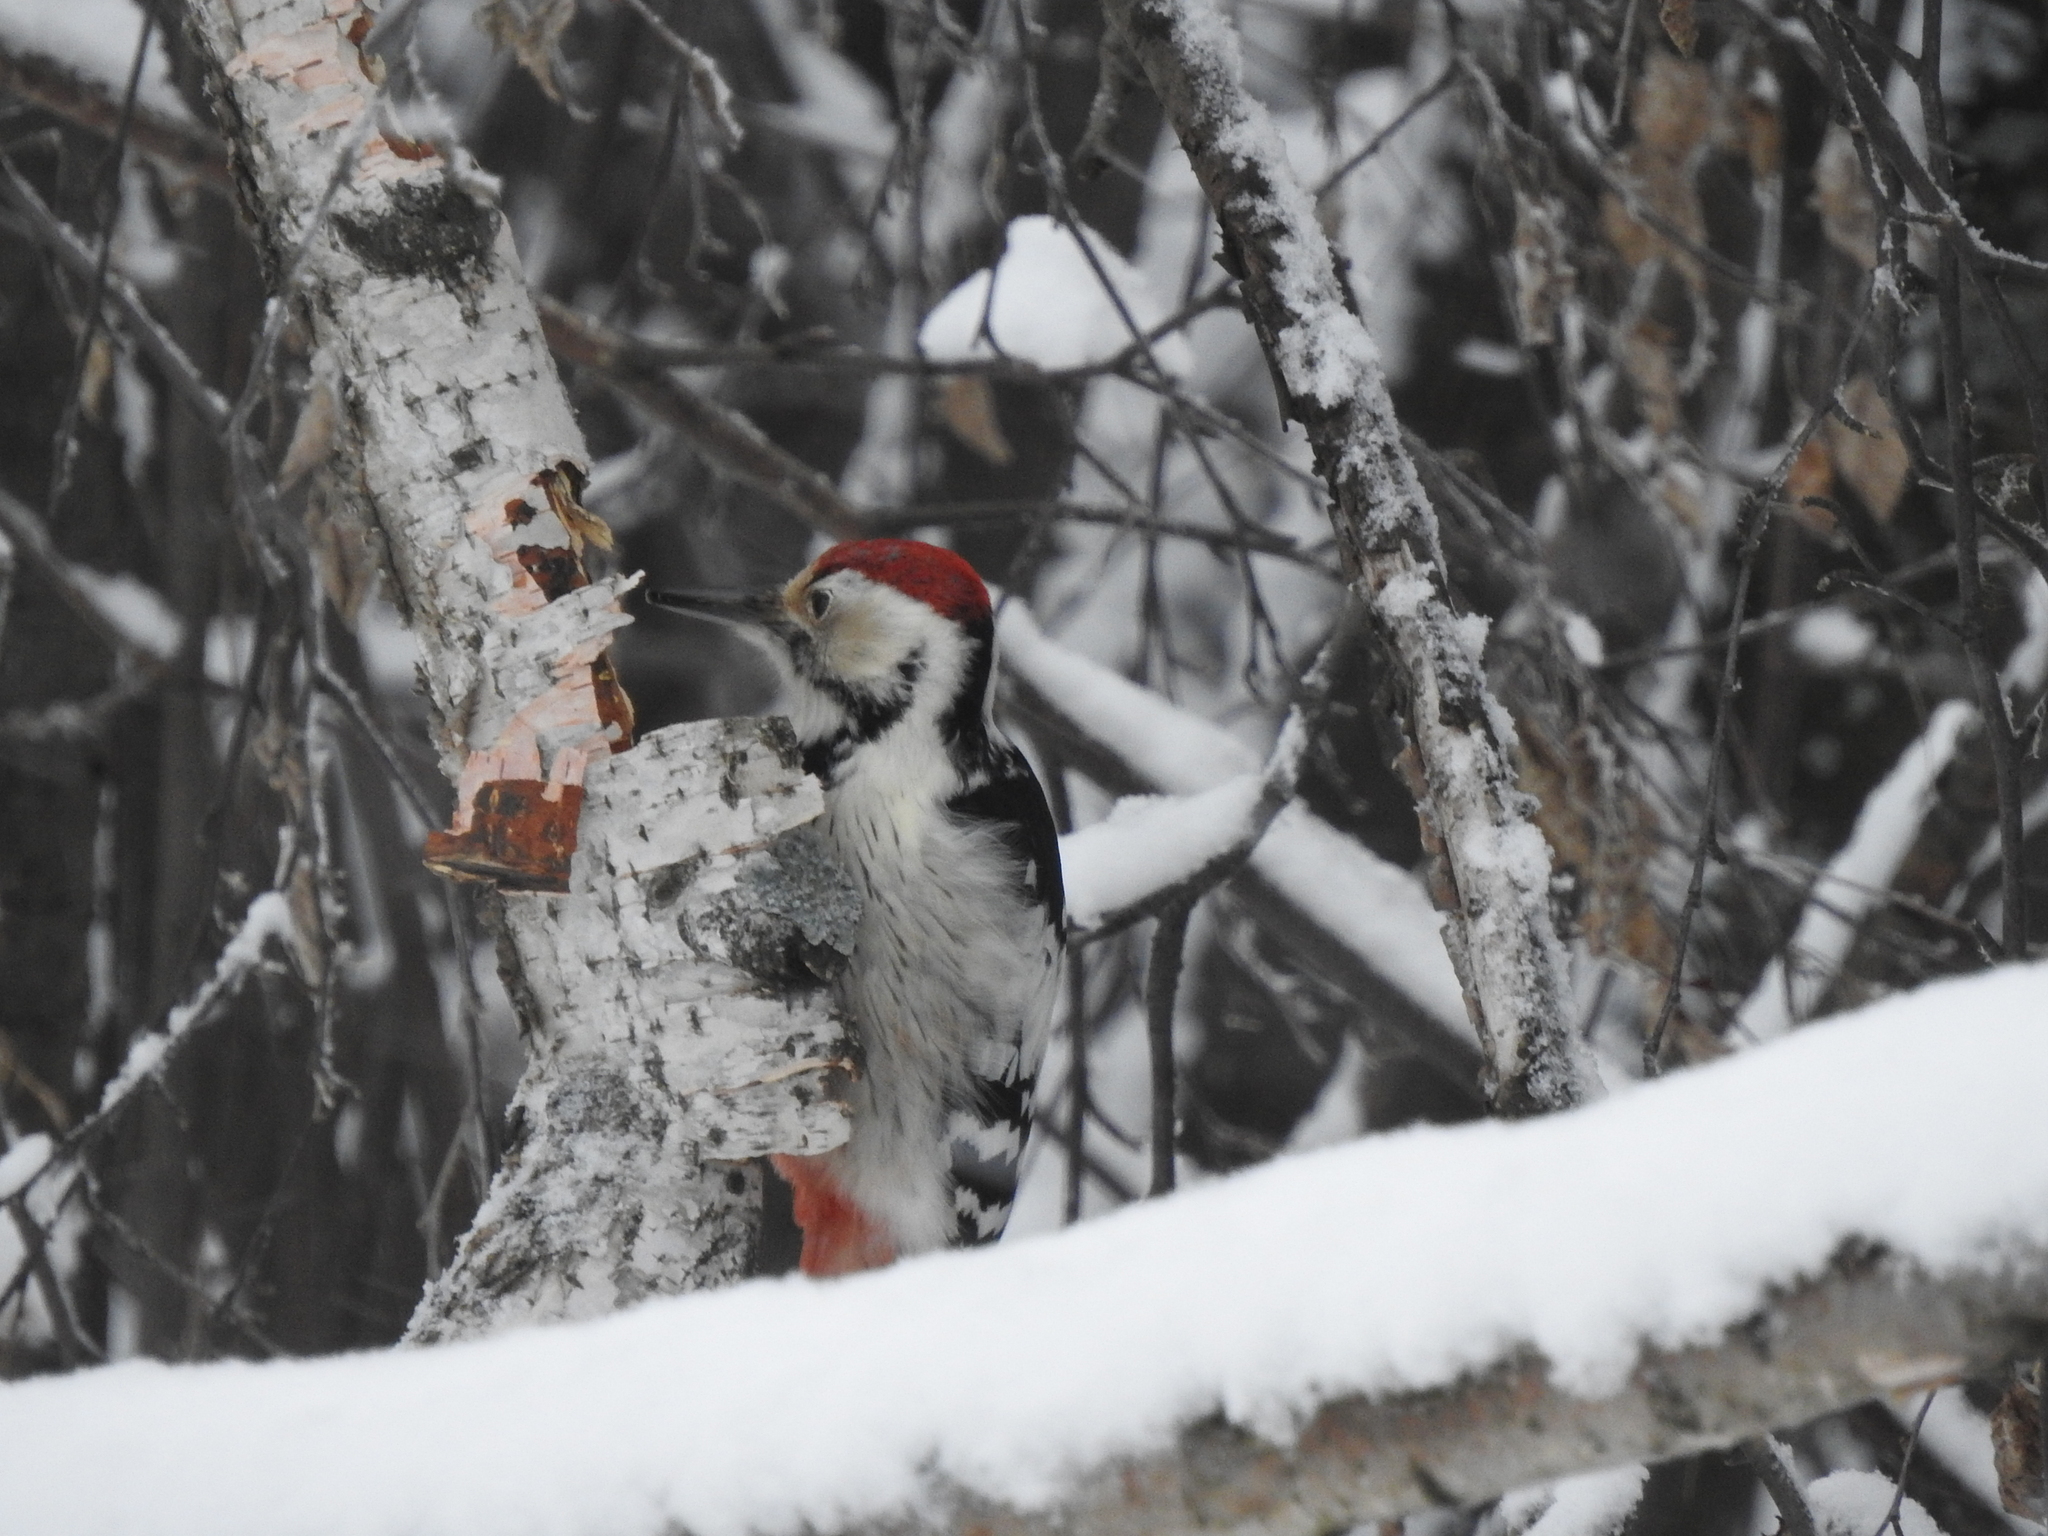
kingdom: Animalia
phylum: Chordata
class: Aves
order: Piciformes
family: Picidae
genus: Dendrocopos
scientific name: Dendrocopos leucotos
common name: White-backed woodpecker
